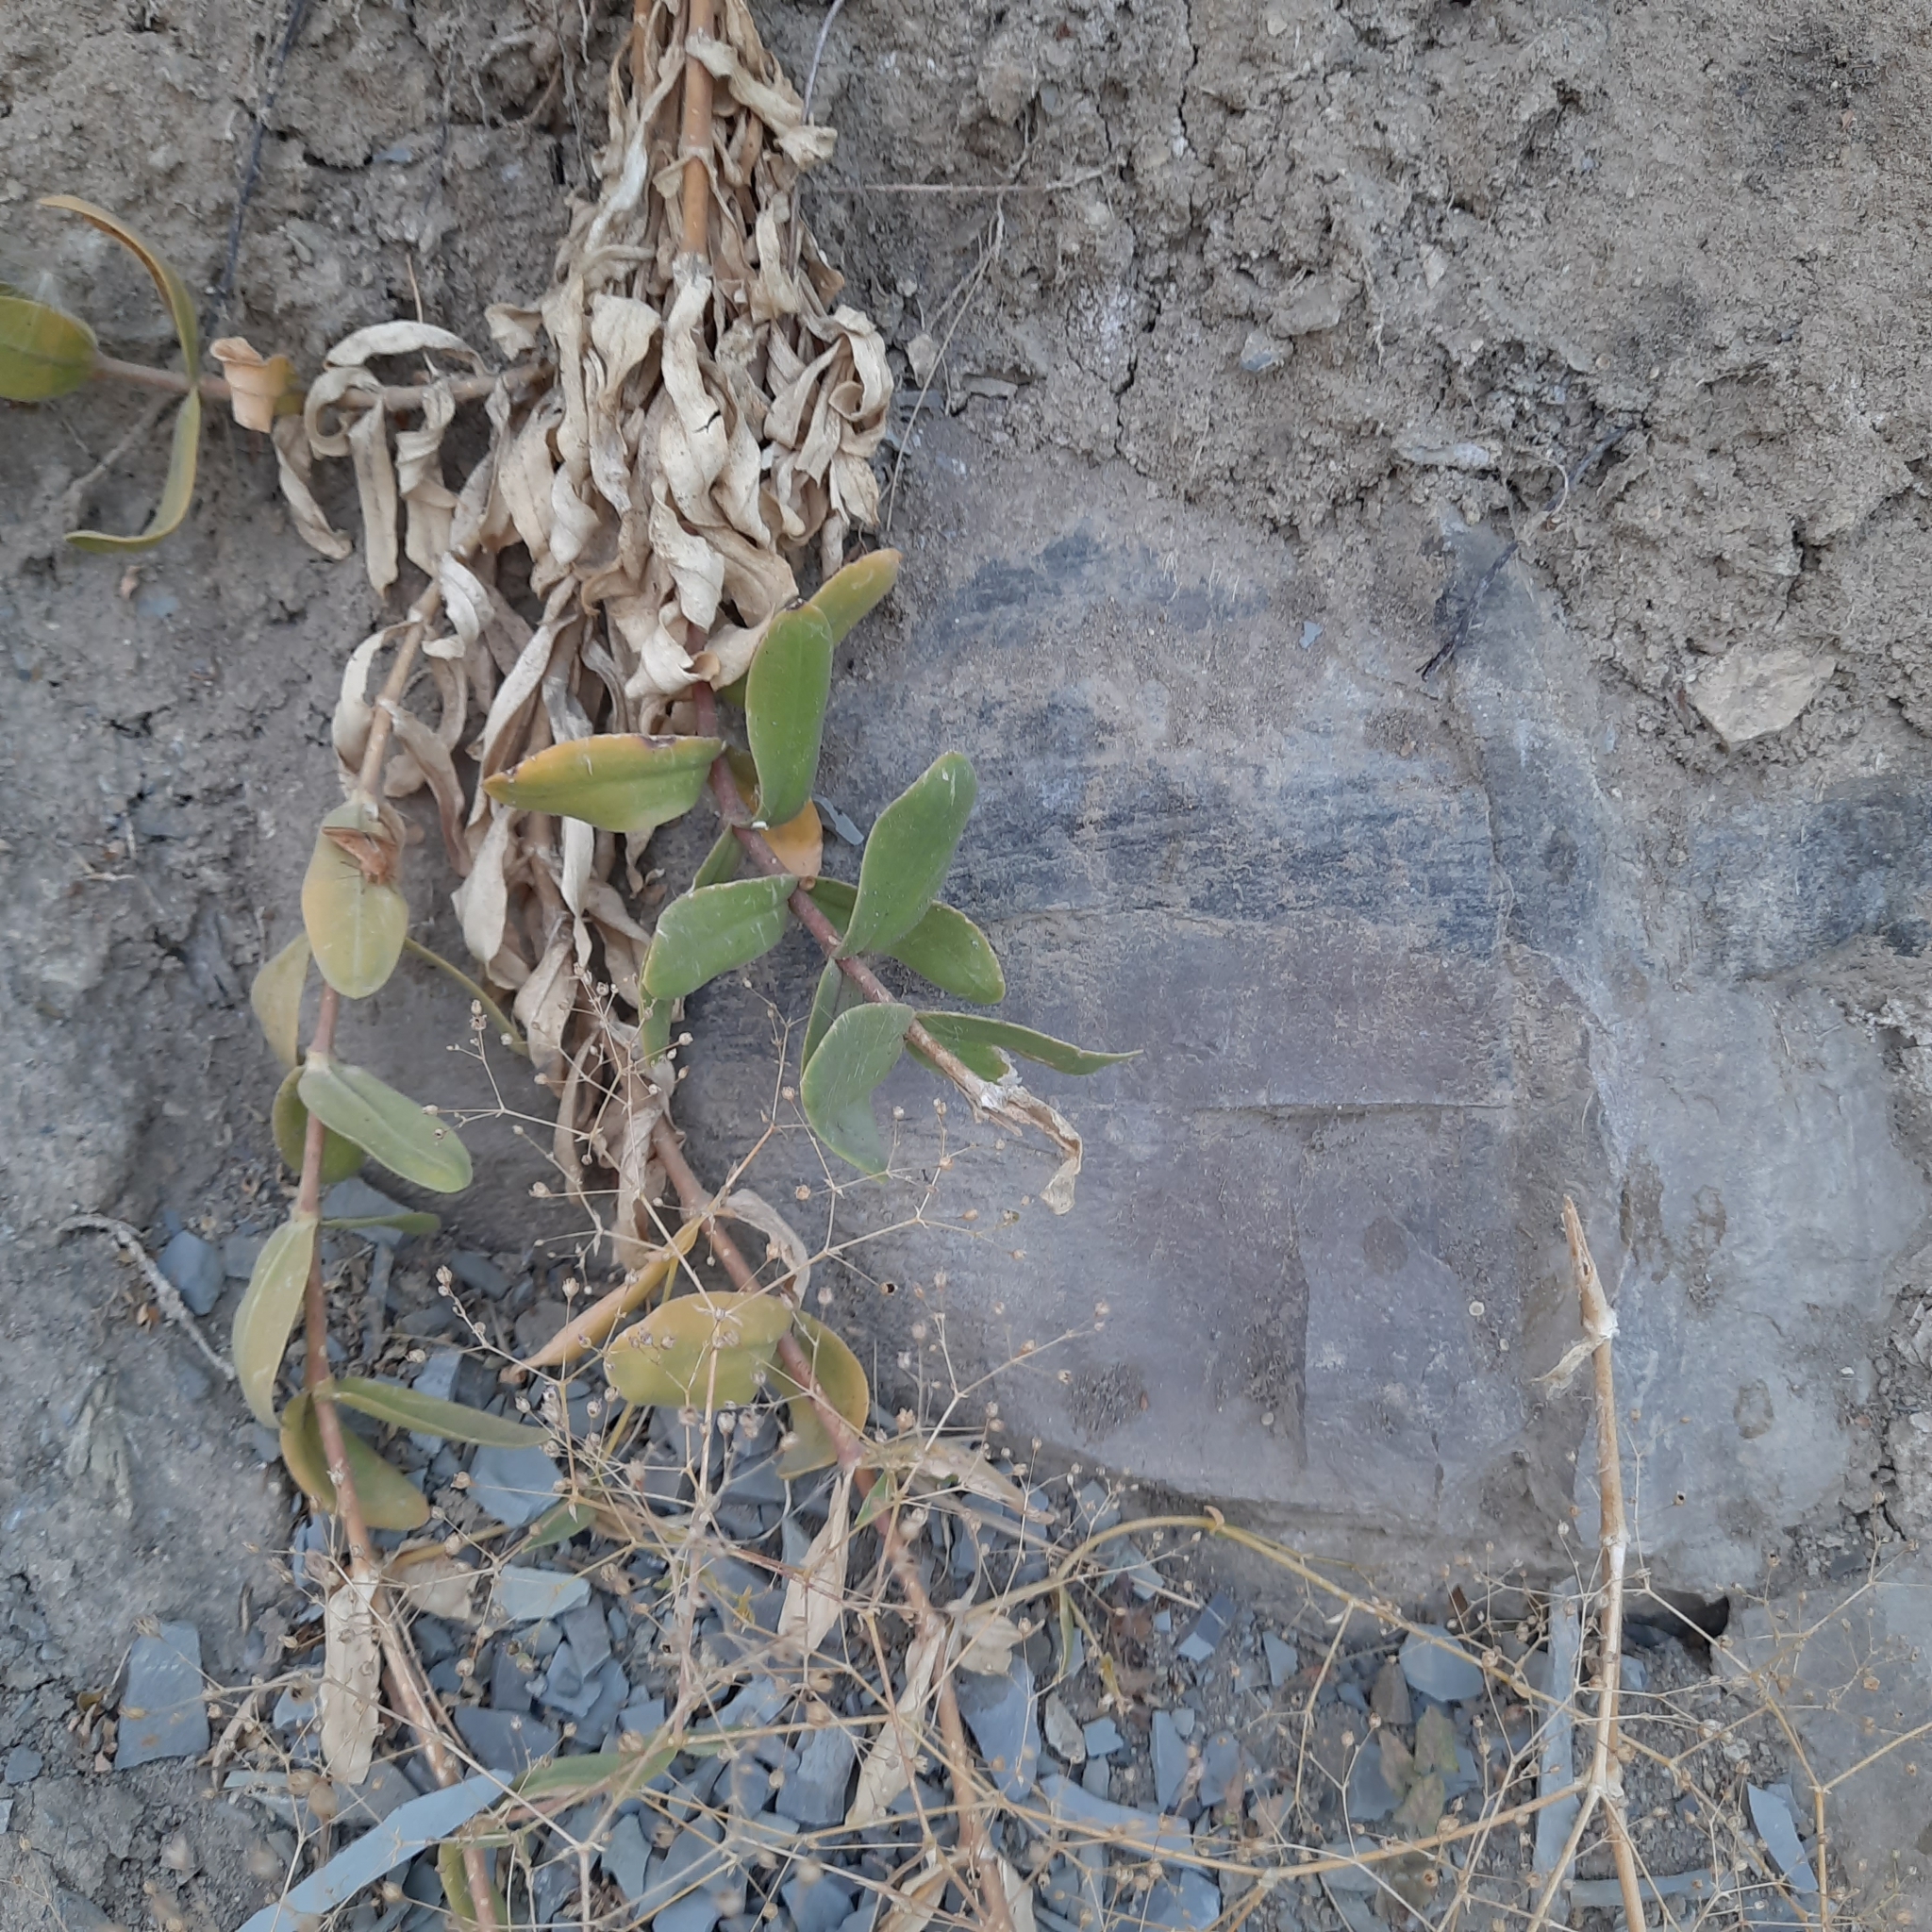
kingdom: Plantae
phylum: Tracheophyta
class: Magnoliopsida
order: Caryophyllales
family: Caryophyllaceae
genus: Gypsophila
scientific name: Gypsophila perfoliata
